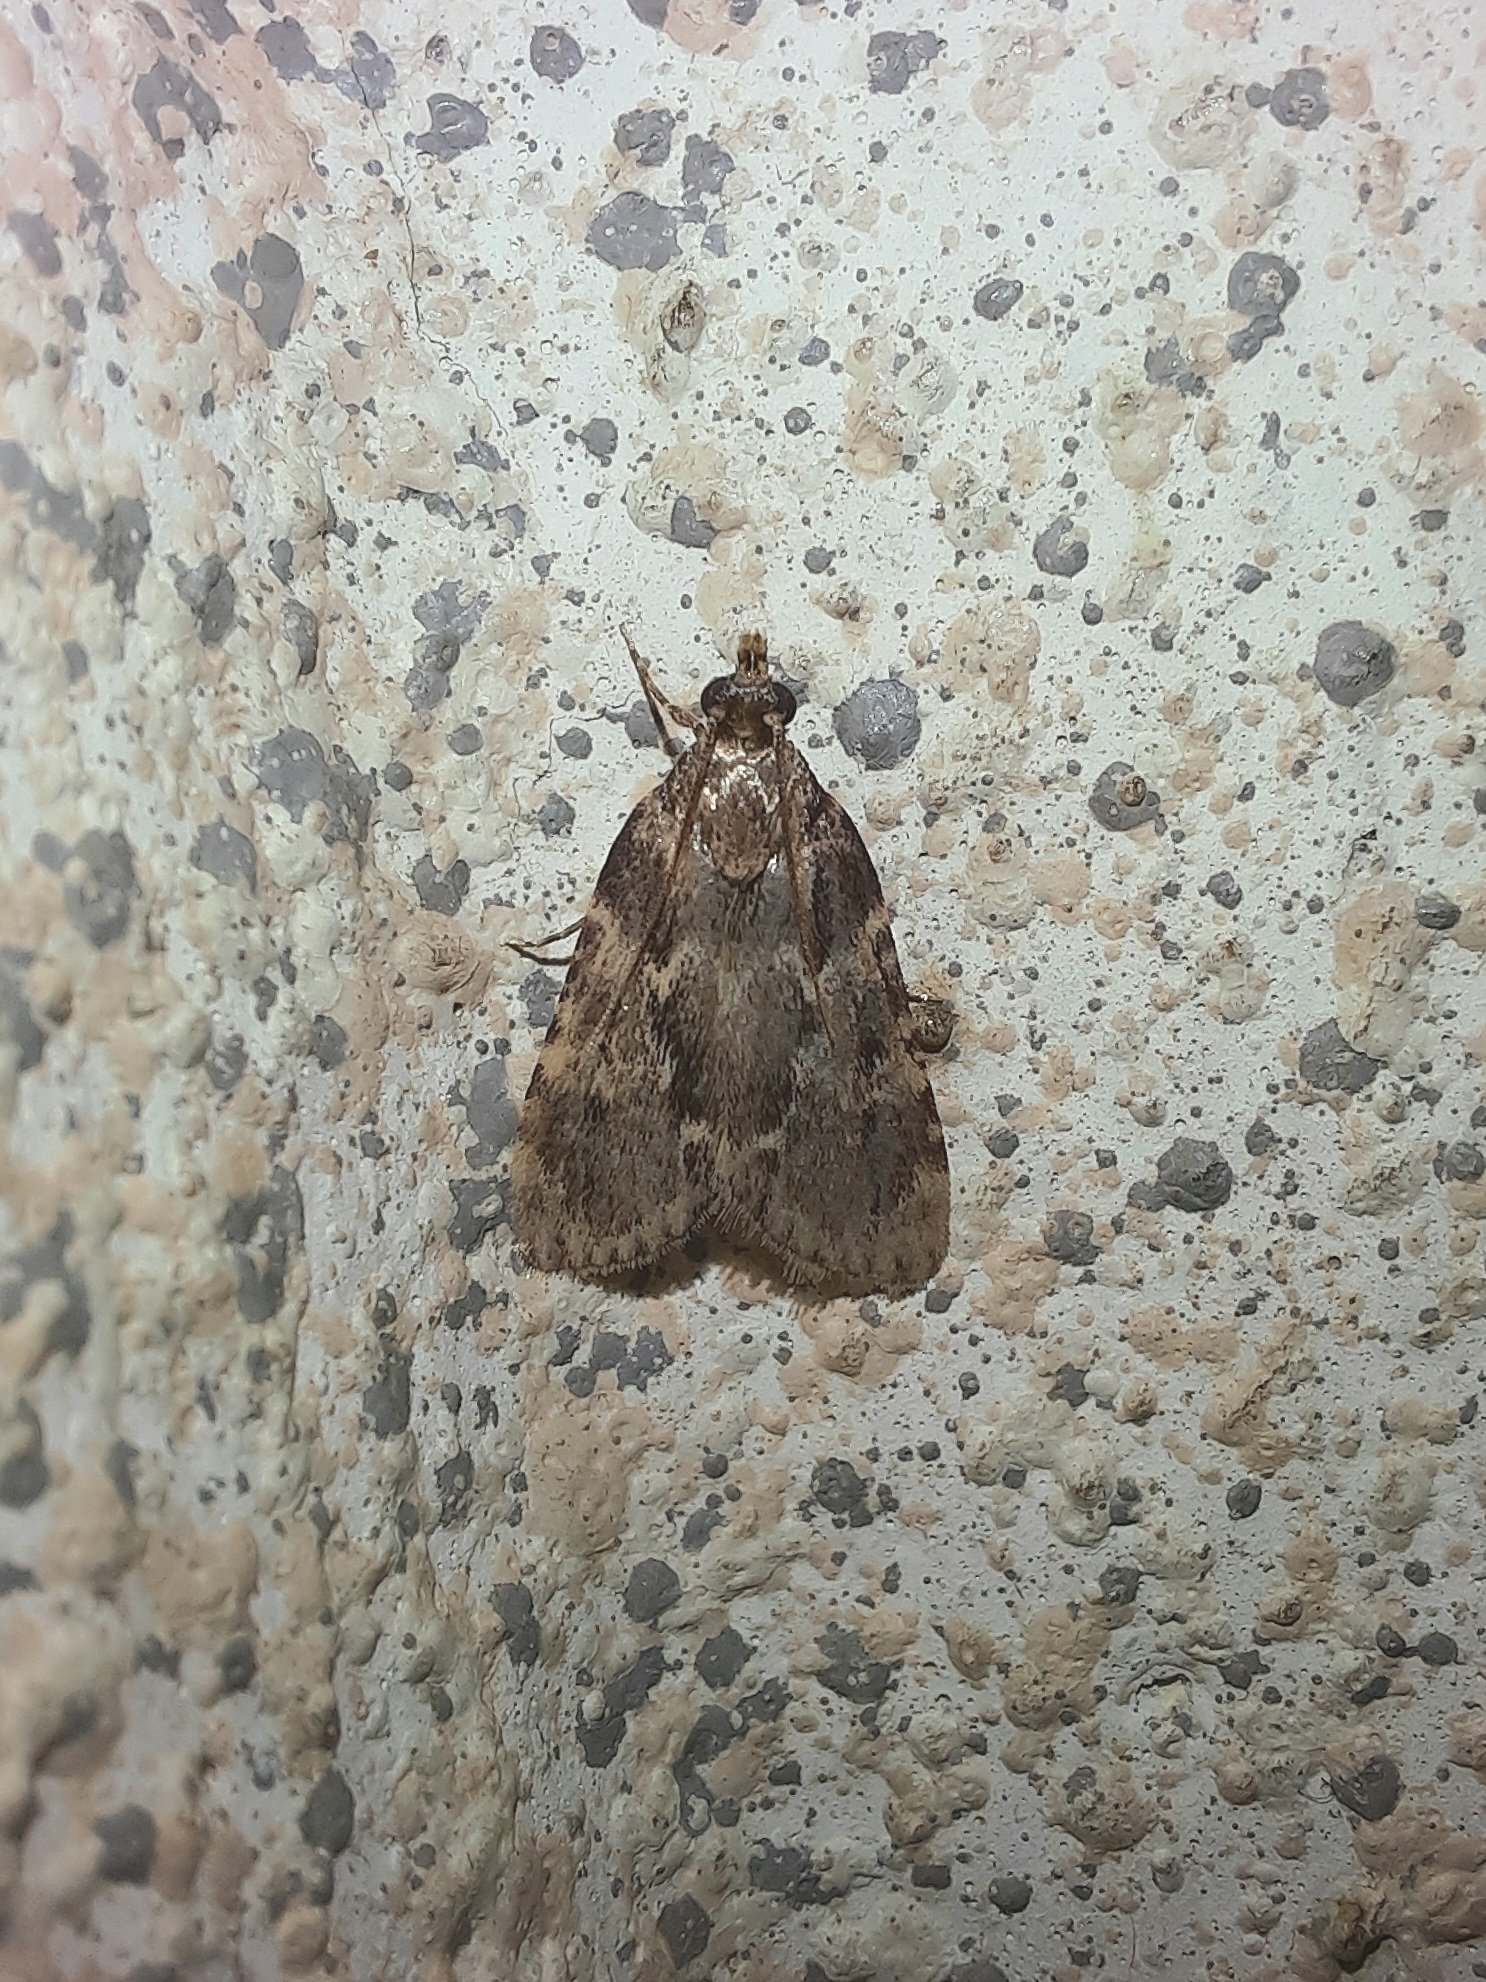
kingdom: Animalia
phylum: Arthropoda
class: Insecta
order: Lepidoptera
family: Pyralidae
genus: Aglossa
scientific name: Aglossa caprealis
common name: Small tabby
